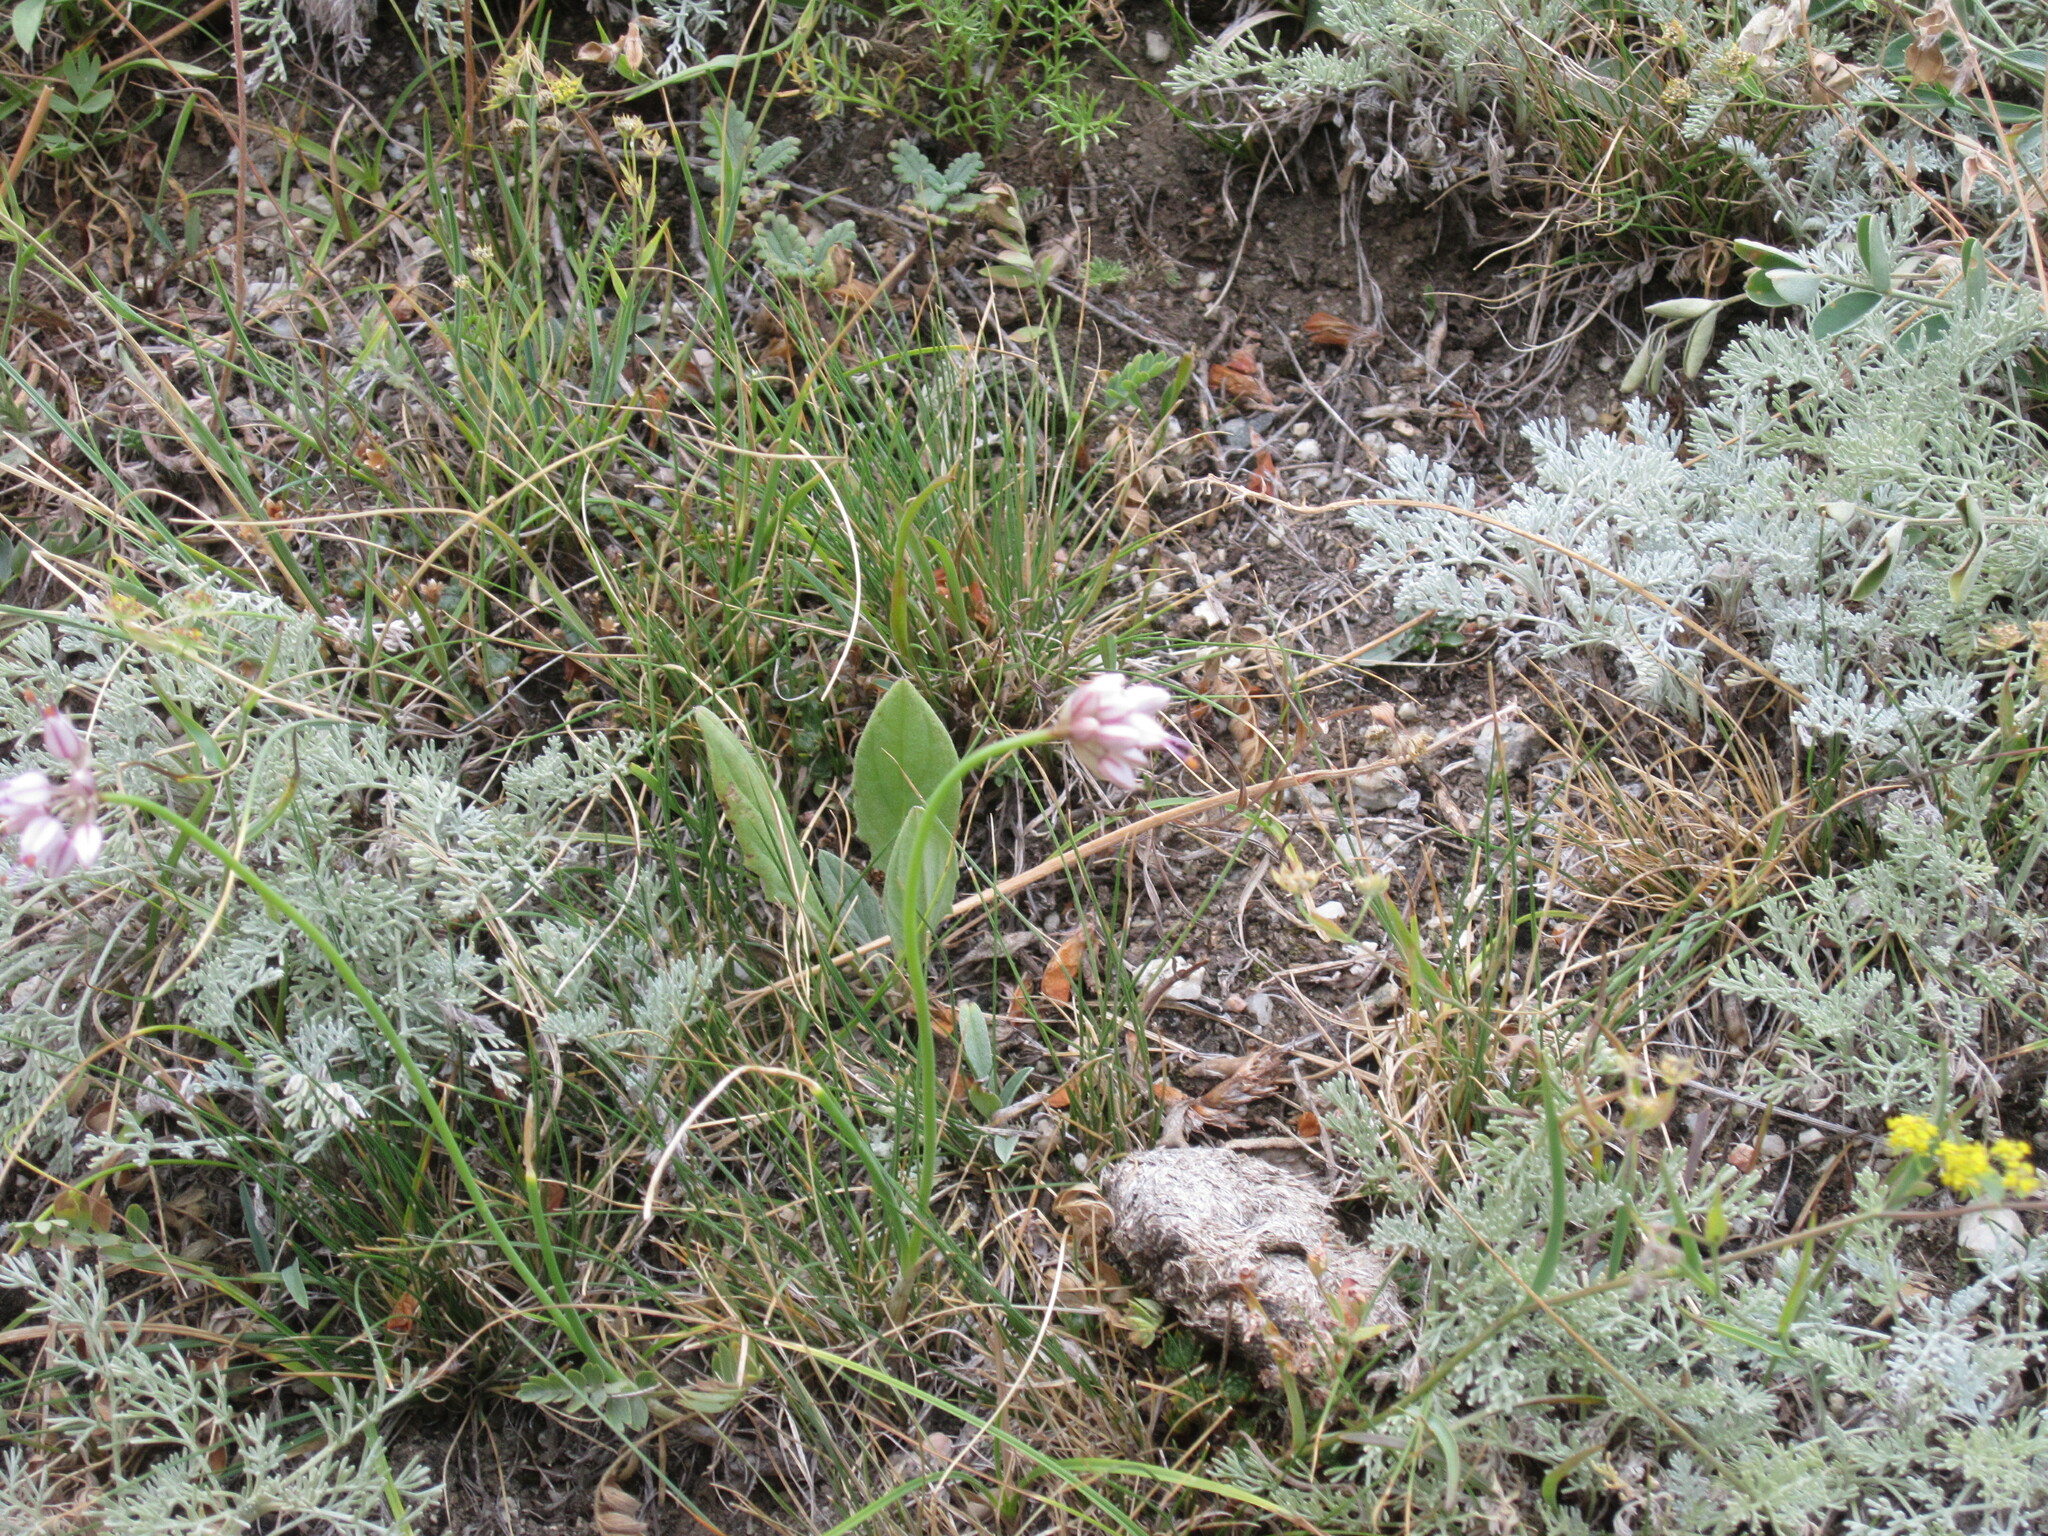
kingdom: Plantae
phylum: Tracheophyta
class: Liliopsida
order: Asparagales
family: Amaryllidaceae
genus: Allium
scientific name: Allium tianschanicum
